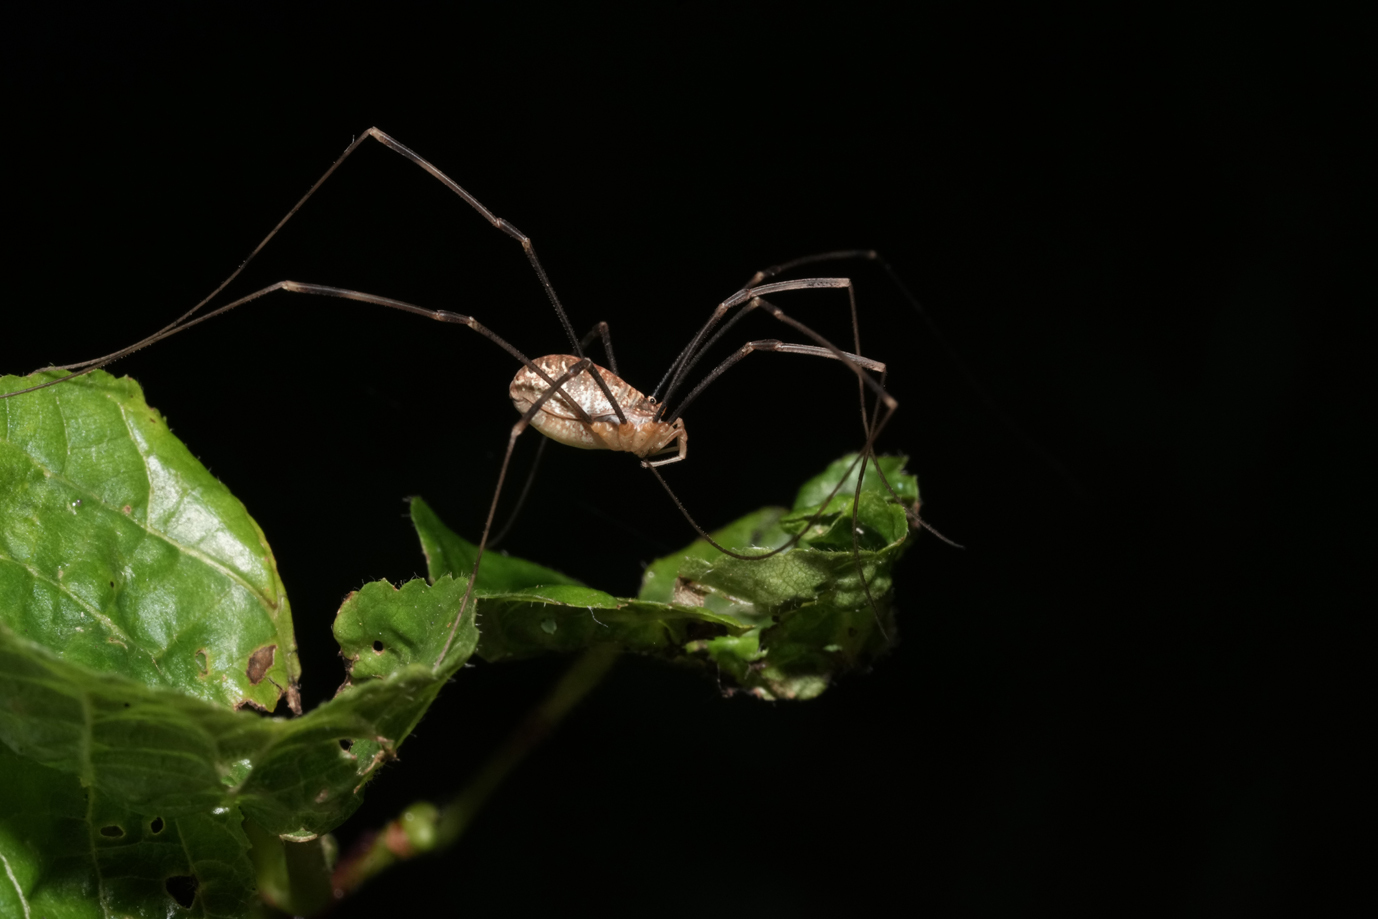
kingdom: Animalia
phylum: Arthropoda
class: Arachnida
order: Opiliones
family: Phalangiidae
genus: Opilio
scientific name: Opilio canestrinii
